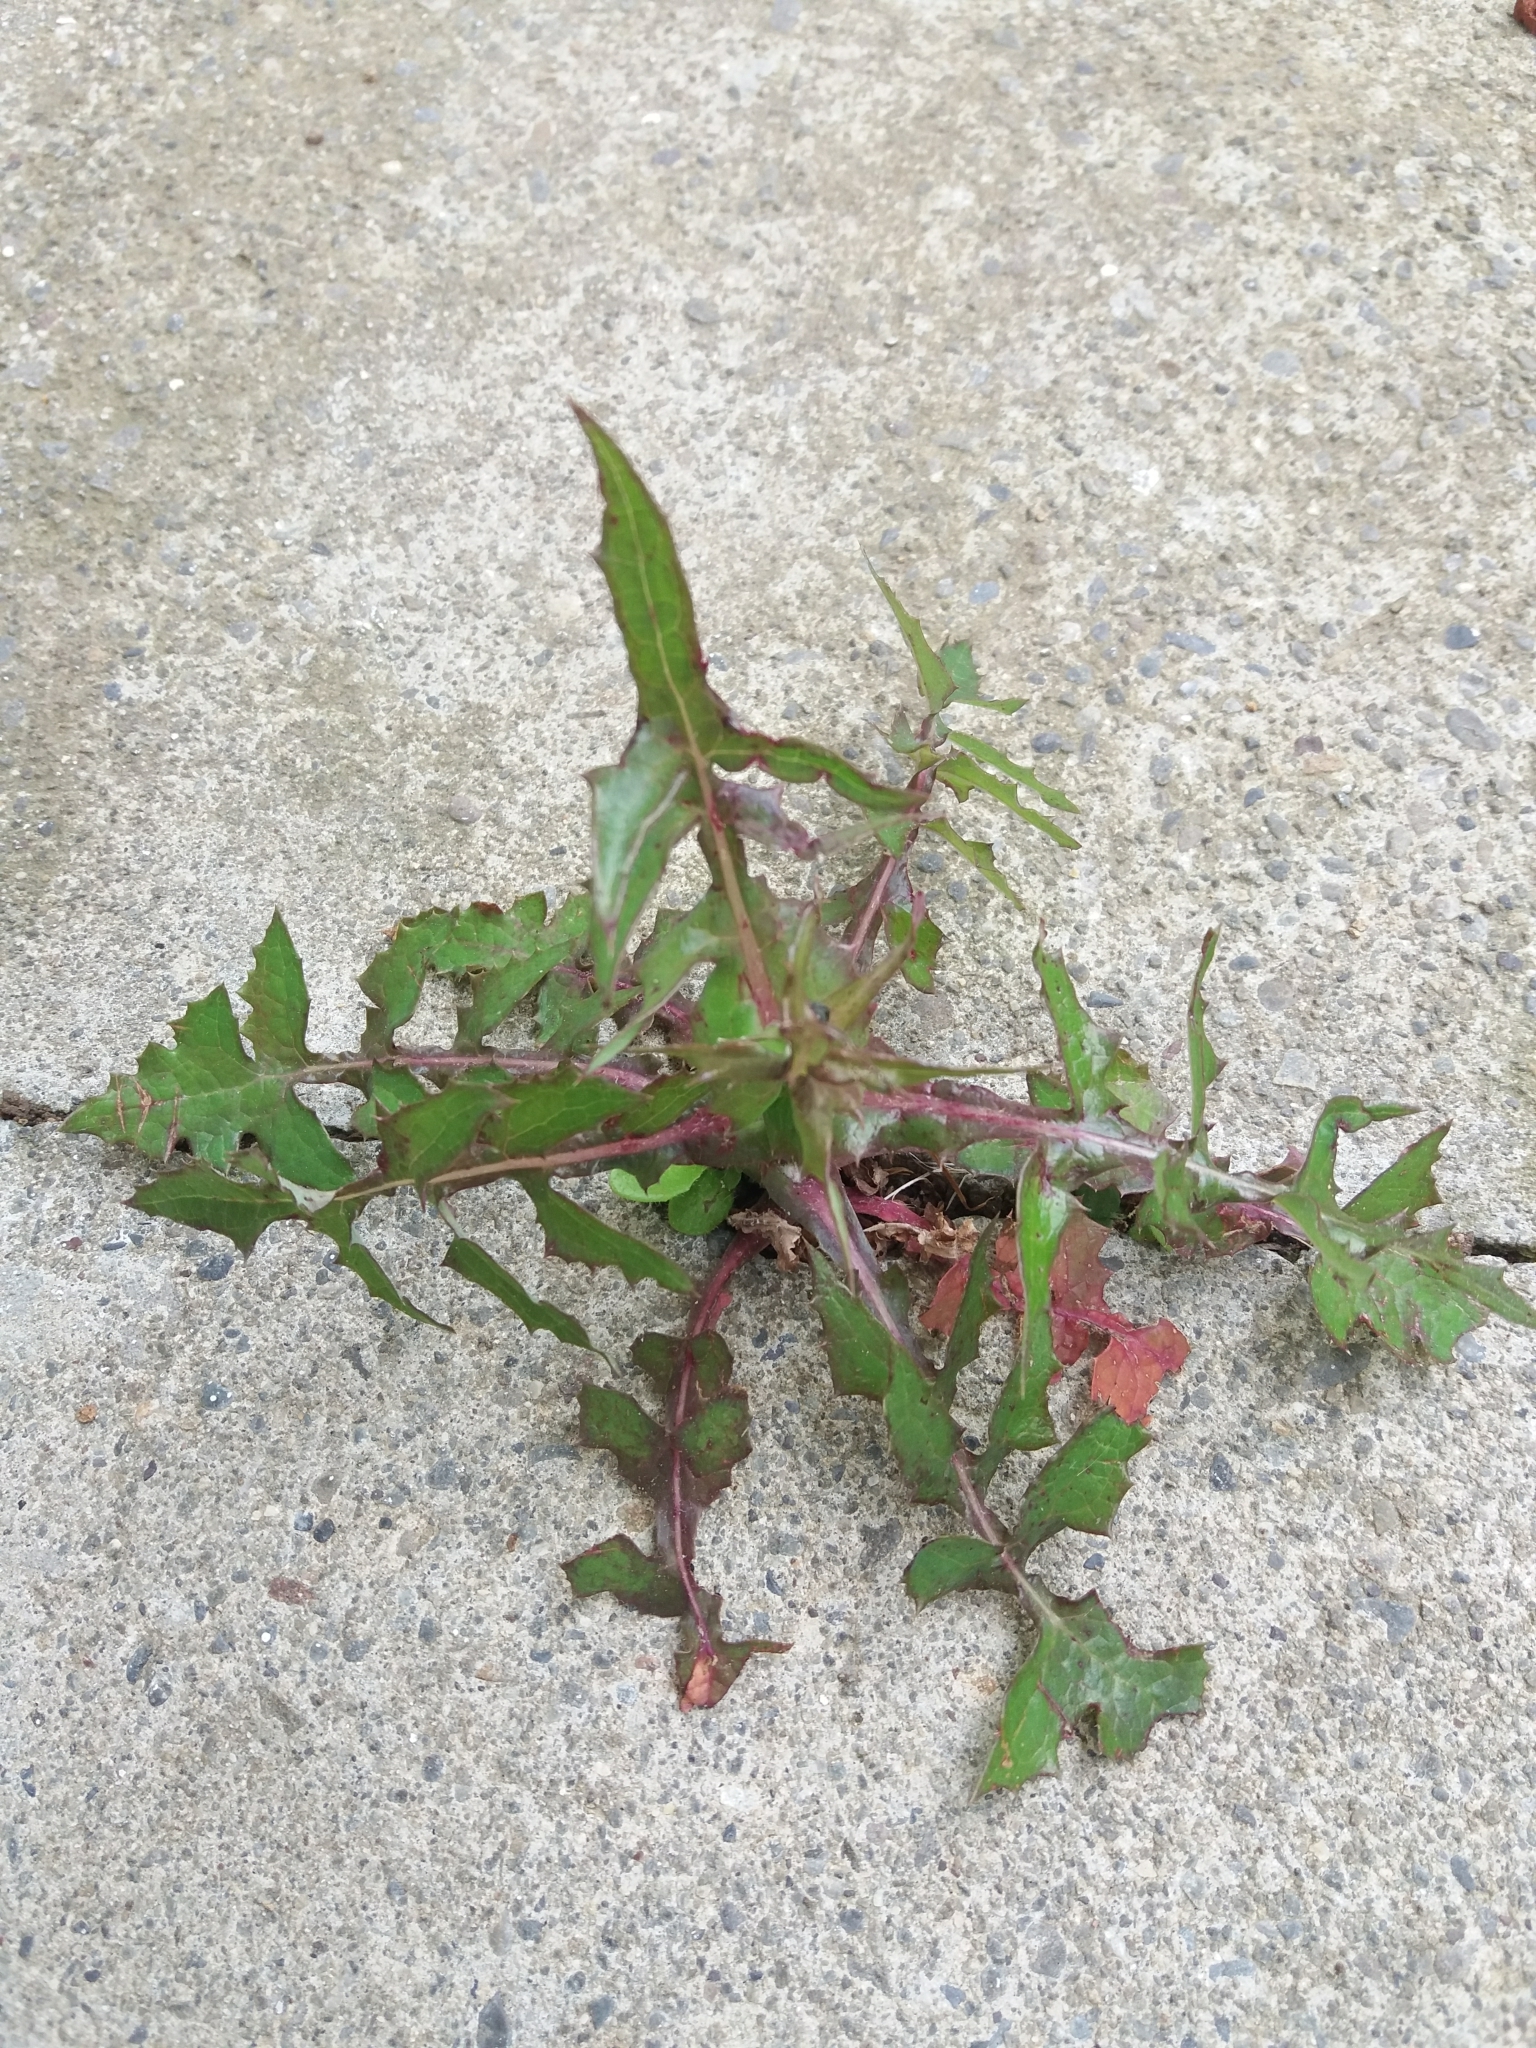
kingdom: Plantae
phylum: Tracheophyta
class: Magnoliopsida
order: Asterales
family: Asteraceae
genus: Sonchus
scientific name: Sonchus oleraceus
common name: Common sowthistle
